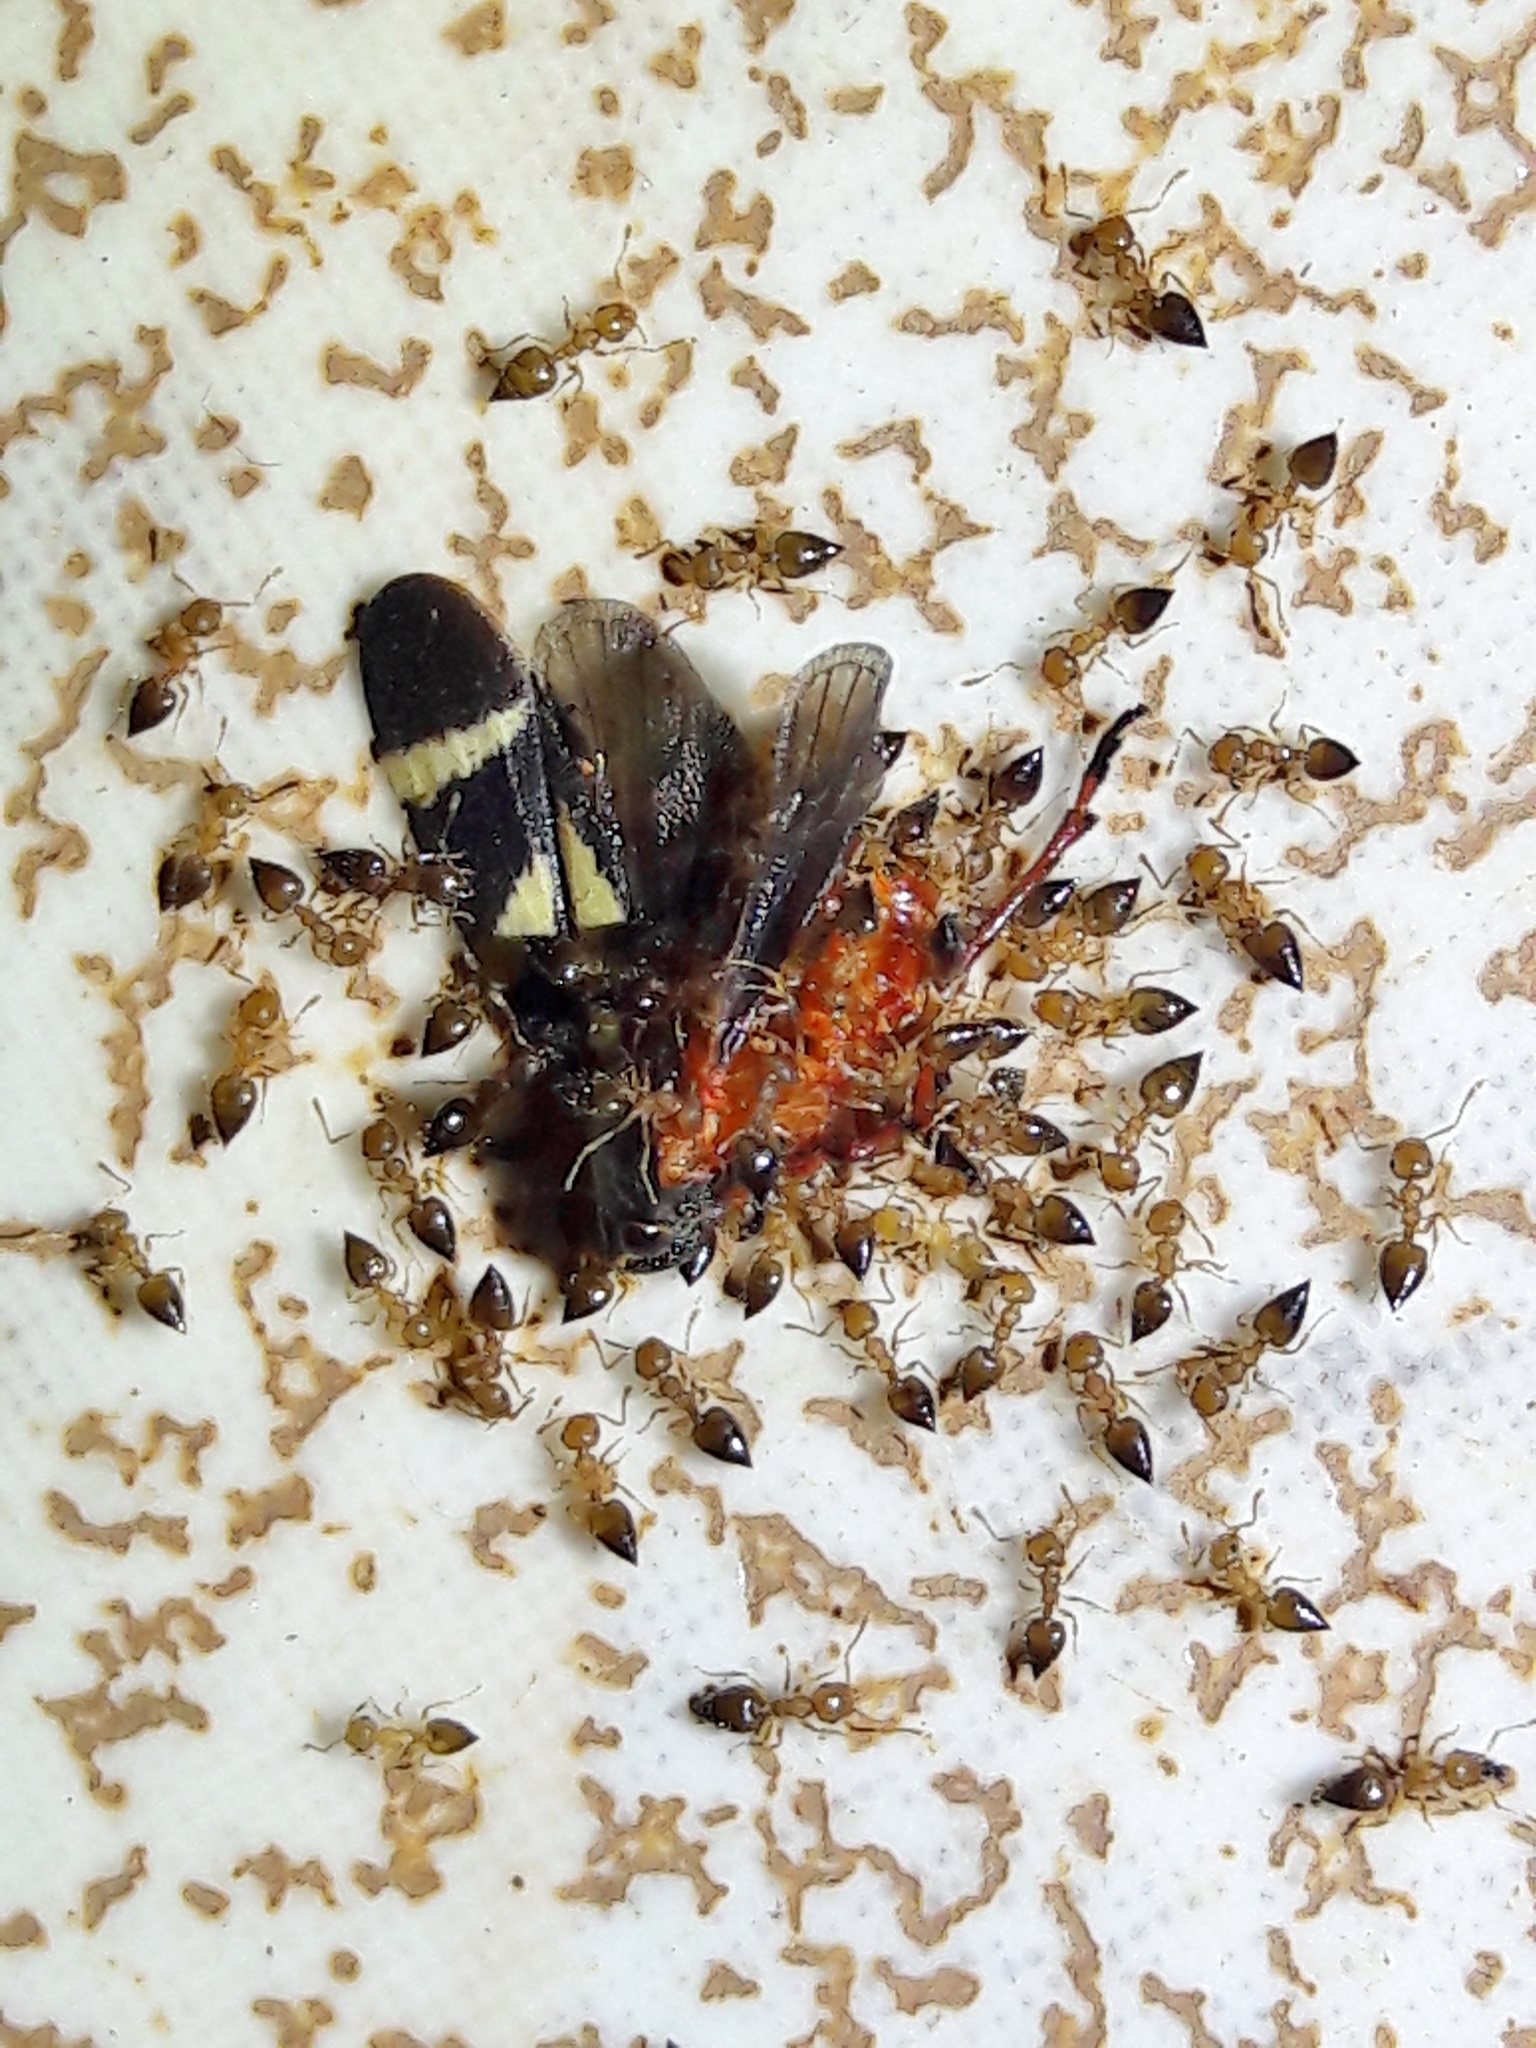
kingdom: Animalia
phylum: Arthropoda
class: Insecta
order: Hemiptera
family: Cercopidae
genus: Deois
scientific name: Deois flavopicta
